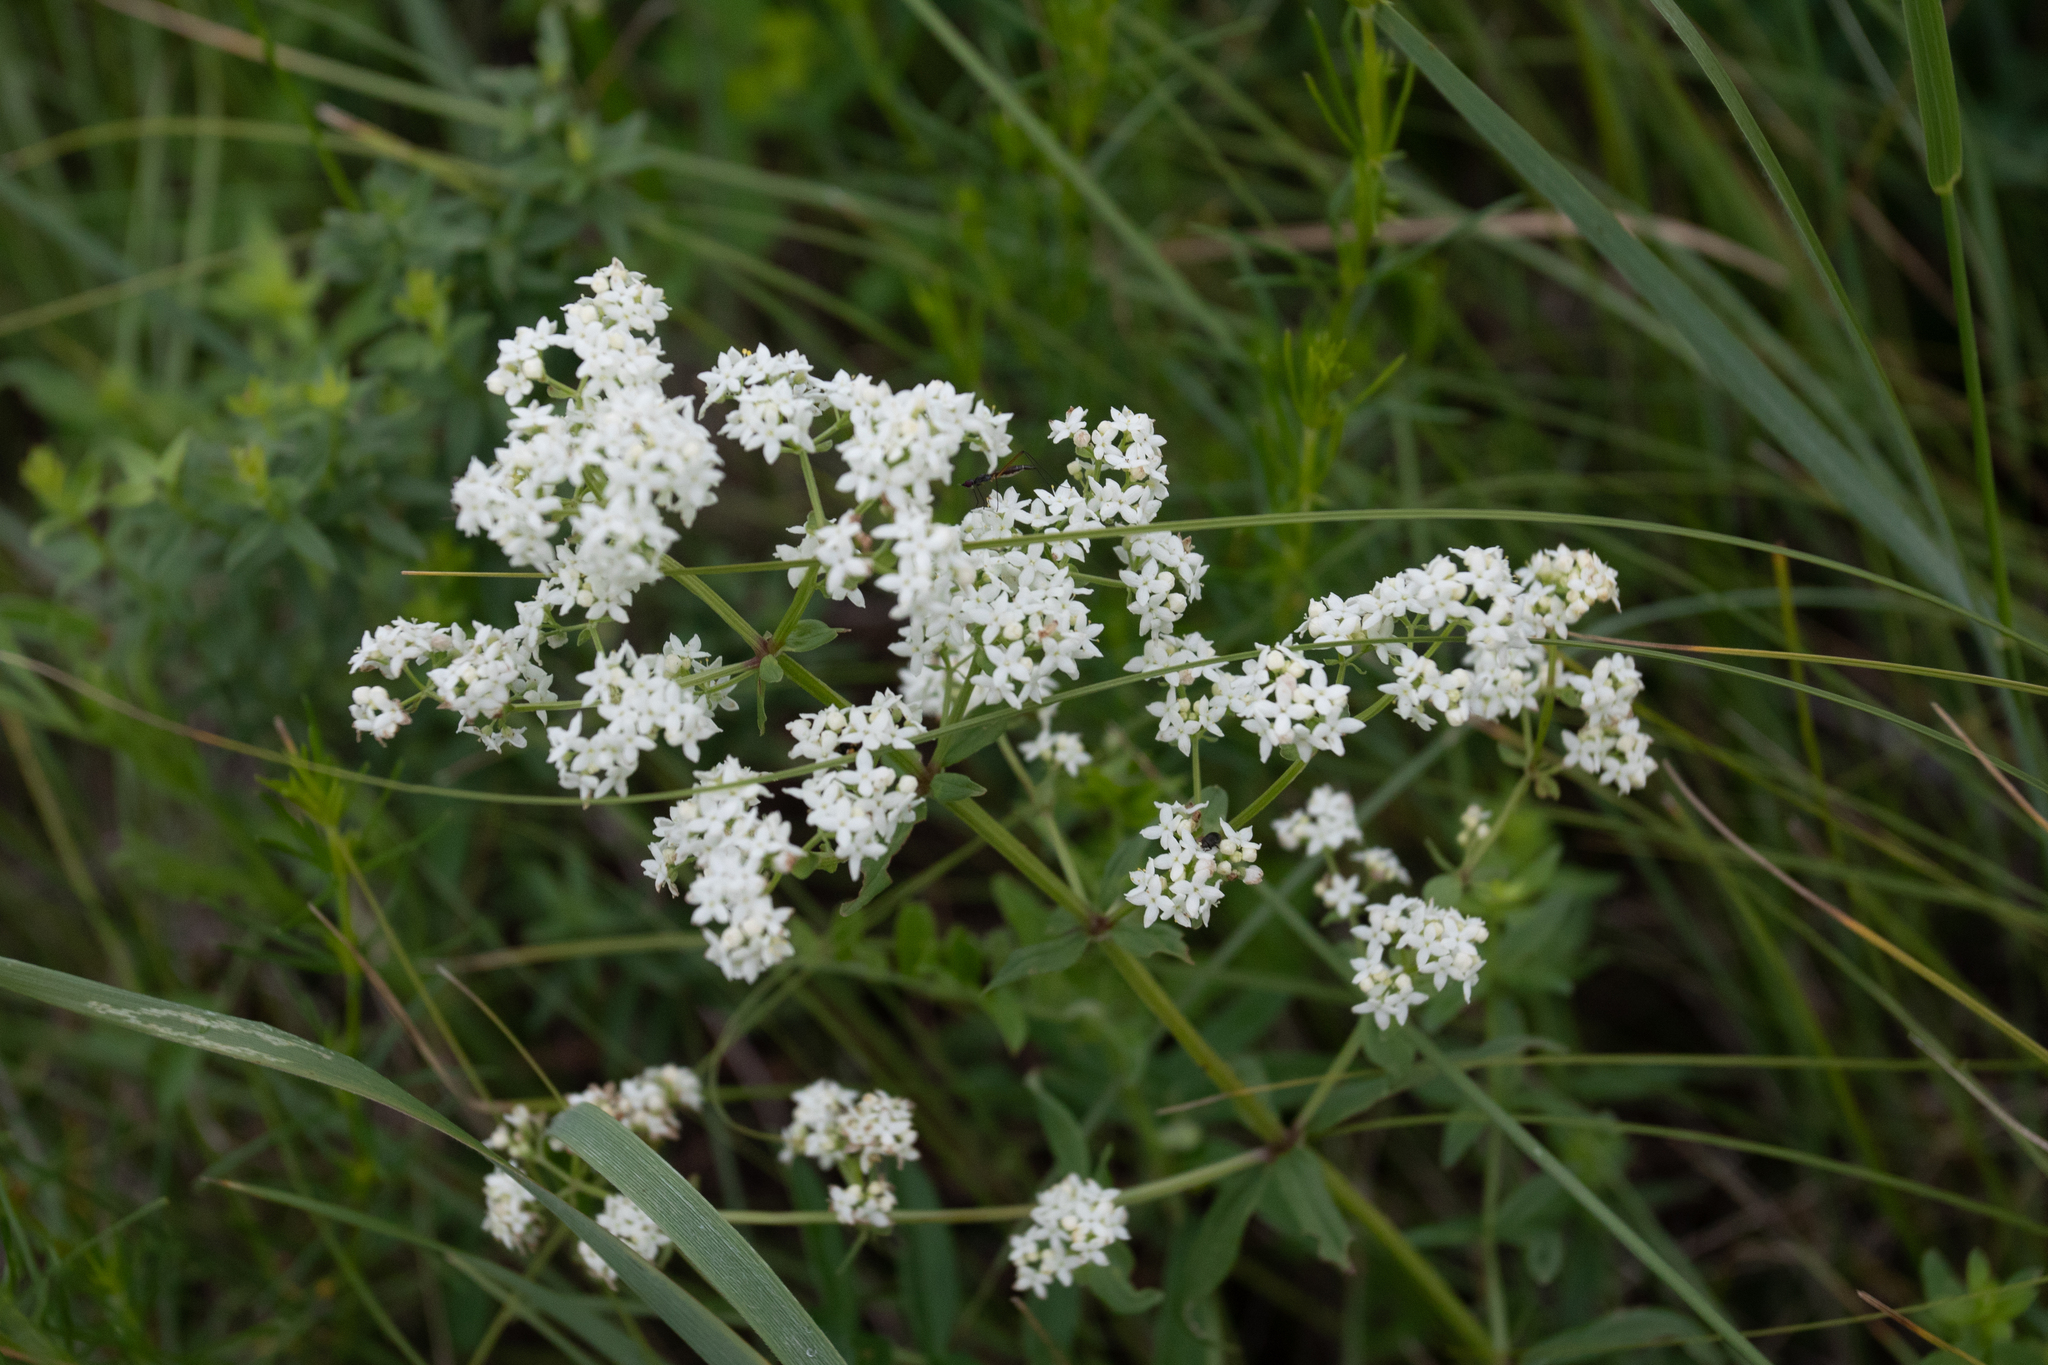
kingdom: Plantae
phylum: Tracheophyta
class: Magnoliopsida
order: Gentianales
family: Rubiaceae
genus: Galium
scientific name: Galium boreale
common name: Northern bedstraw
